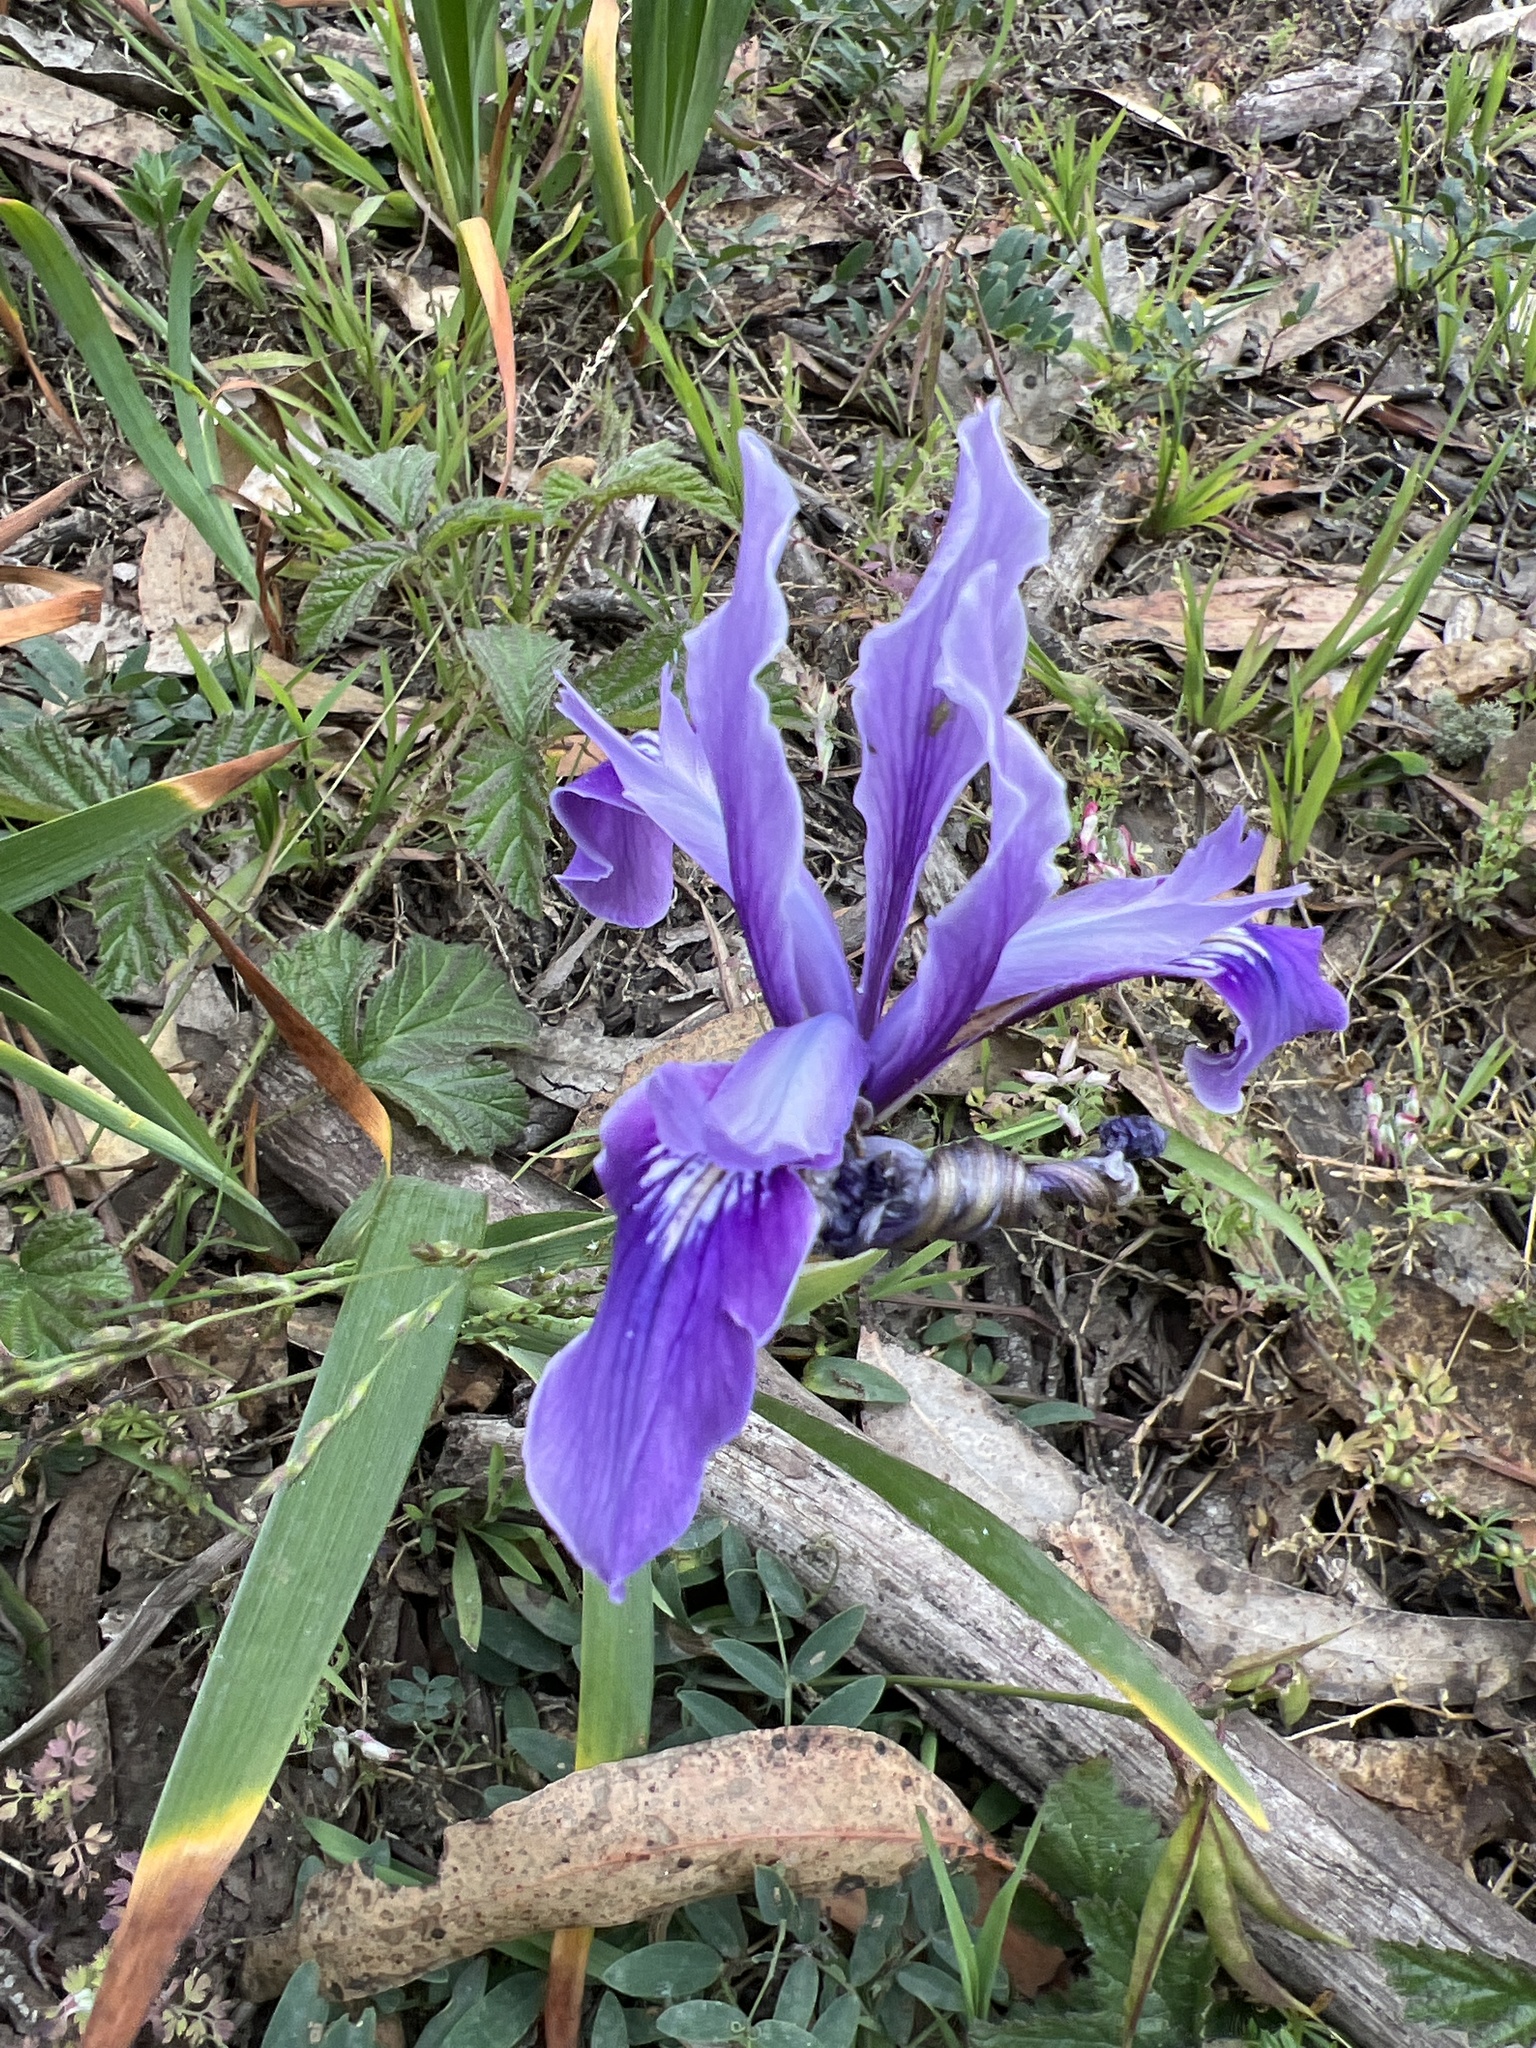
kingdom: Plantae
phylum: Tracheophyta
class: Liliopsida
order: Asparagales
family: Iridaceae
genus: Iris
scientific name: Iris douglasiana
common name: Marin iris
